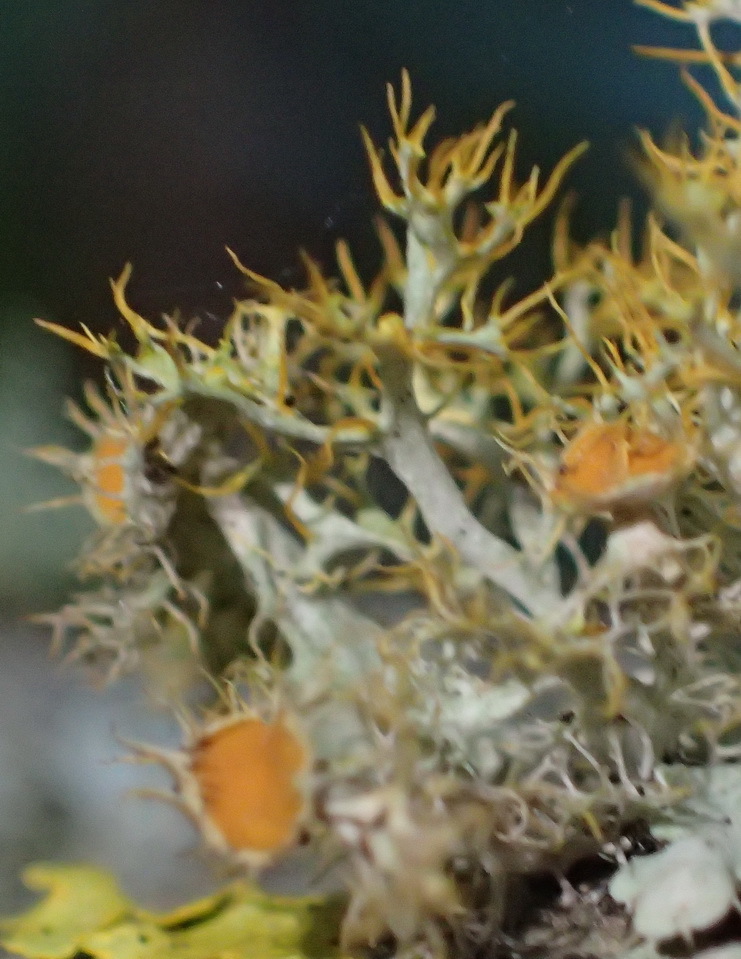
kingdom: Fungi
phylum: Ascomycota
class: Lecanoromycetes
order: Teloschistales
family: Teloschistaceae
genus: Niorma
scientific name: Niorma chrysophthalma
